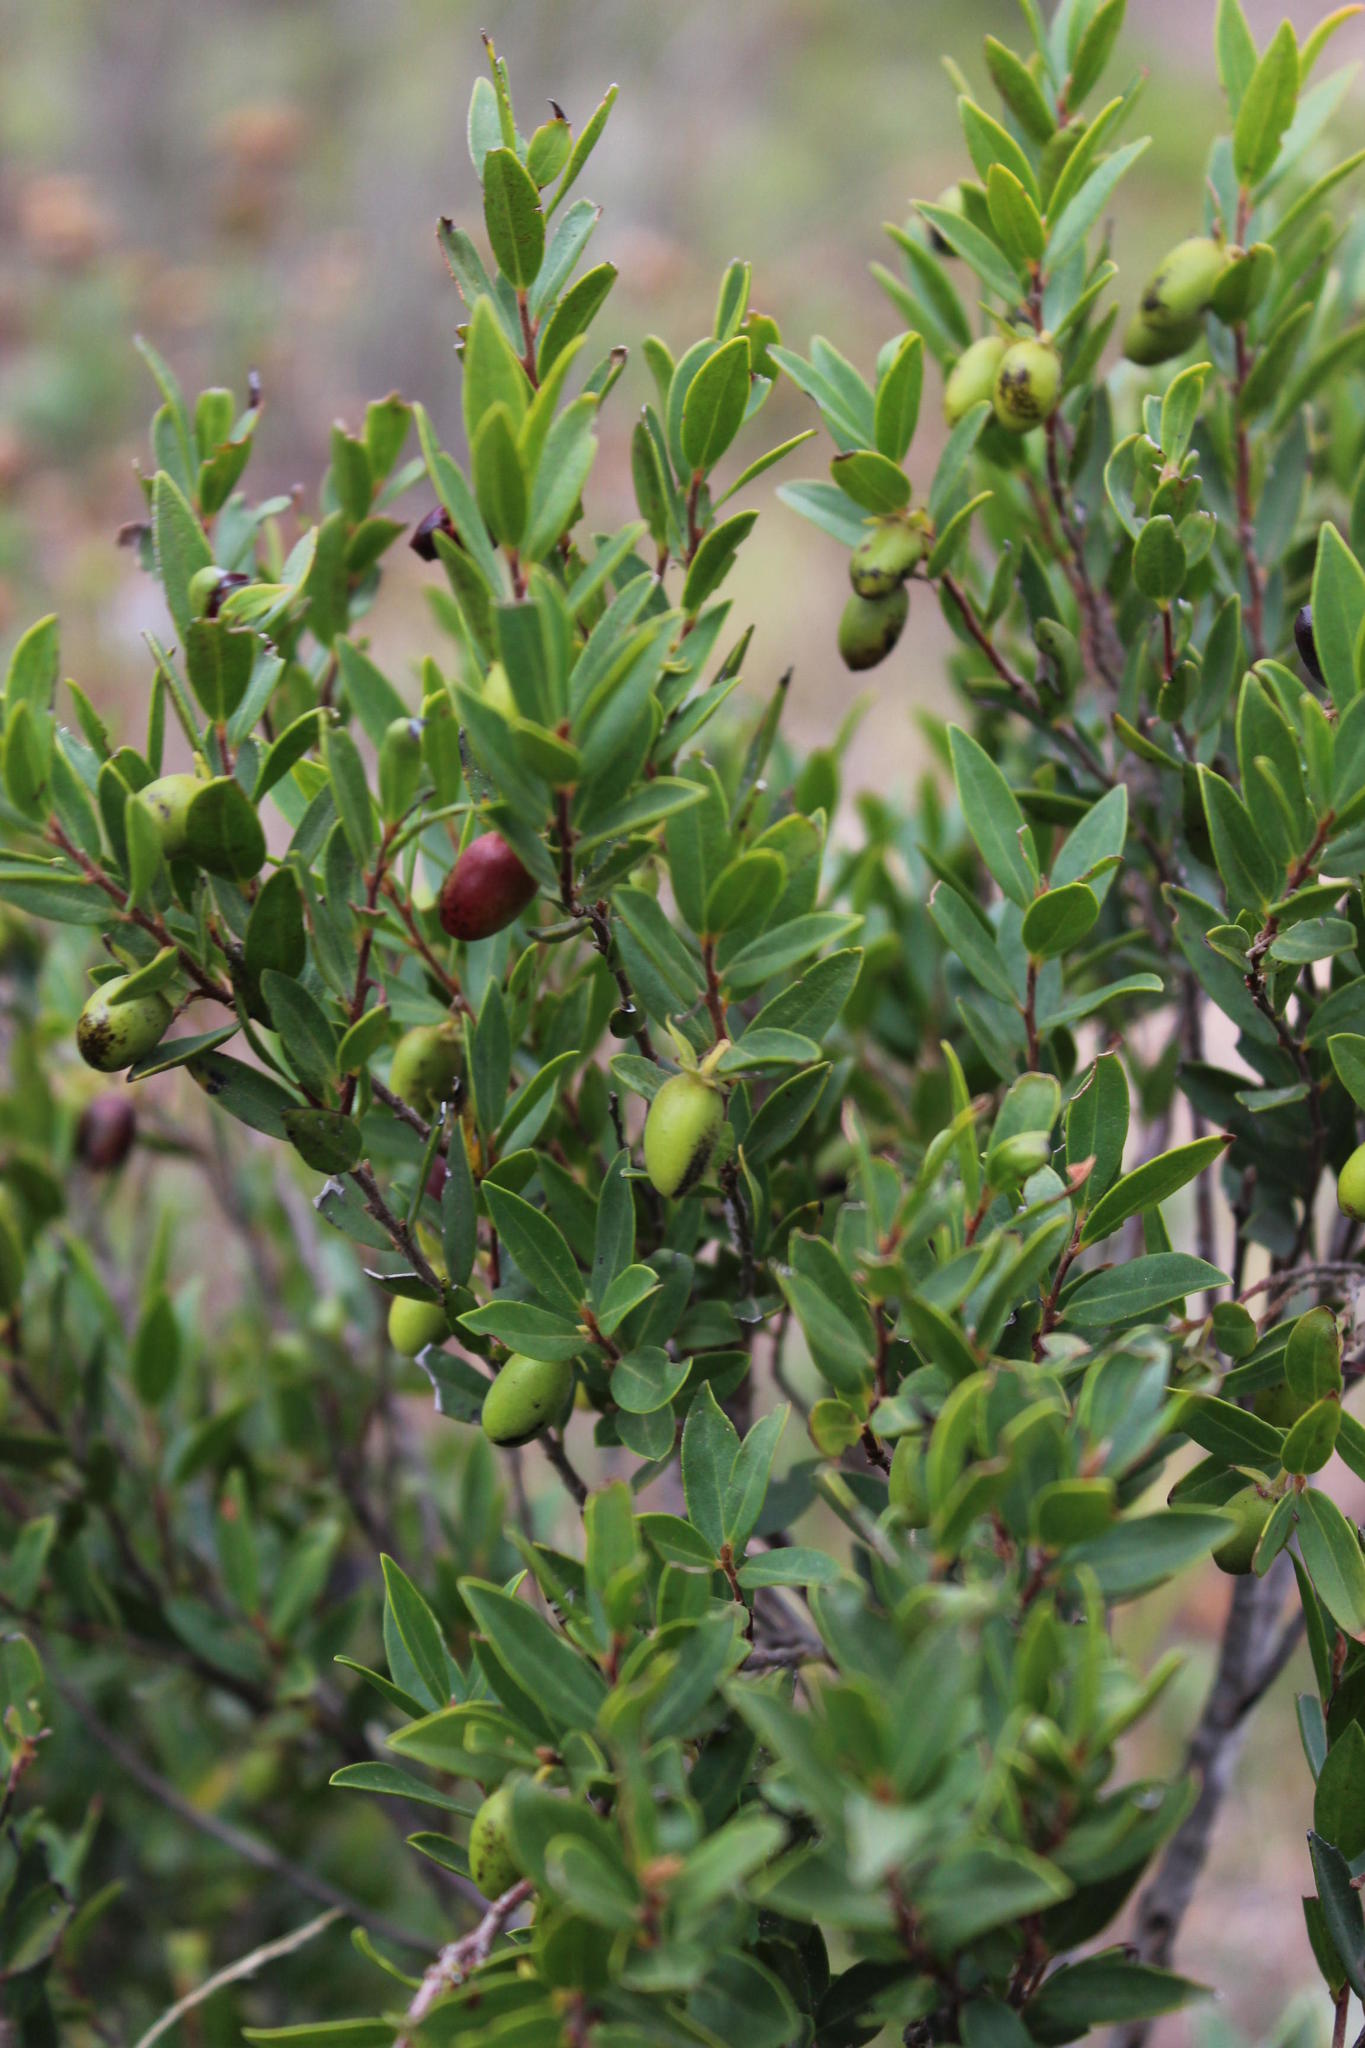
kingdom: Plantae
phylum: Tracheophyta
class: Magnoliopsida
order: Ericales
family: Ebenaceae
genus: Diospyros
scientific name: Diospyros glabra
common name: Fynbos star apple
